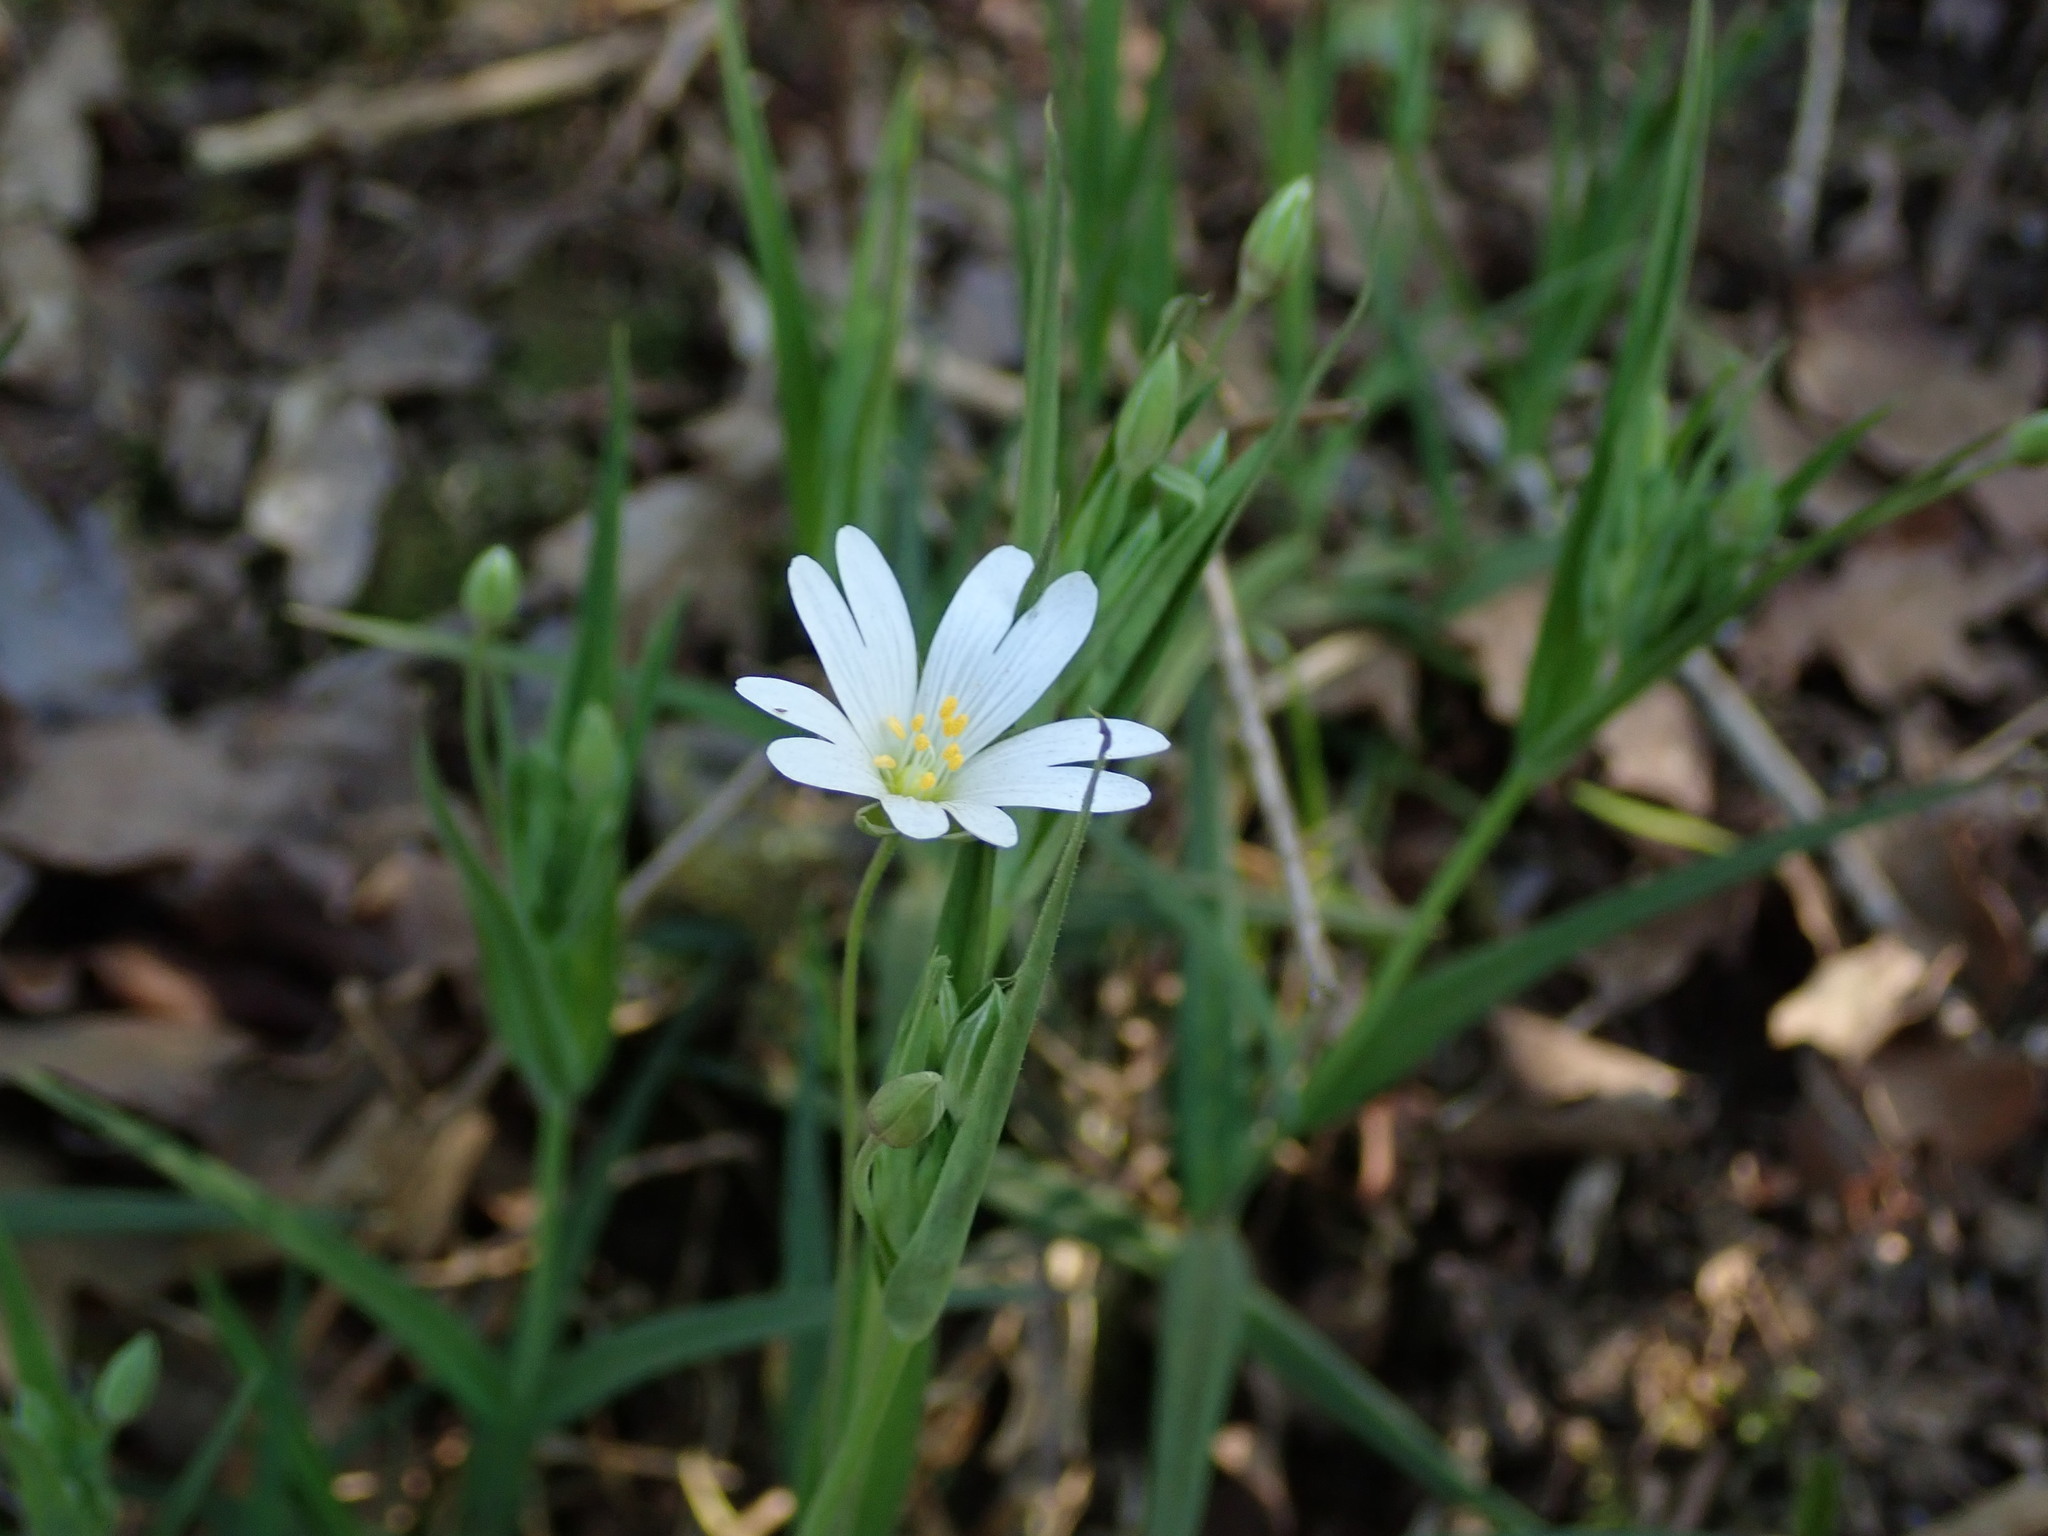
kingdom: Plantae
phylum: Tracheophyta
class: Magnoliopsida
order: Caryophyllales
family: Caryophyllaceae
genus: Rabelera
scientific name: Rabelera holostea
